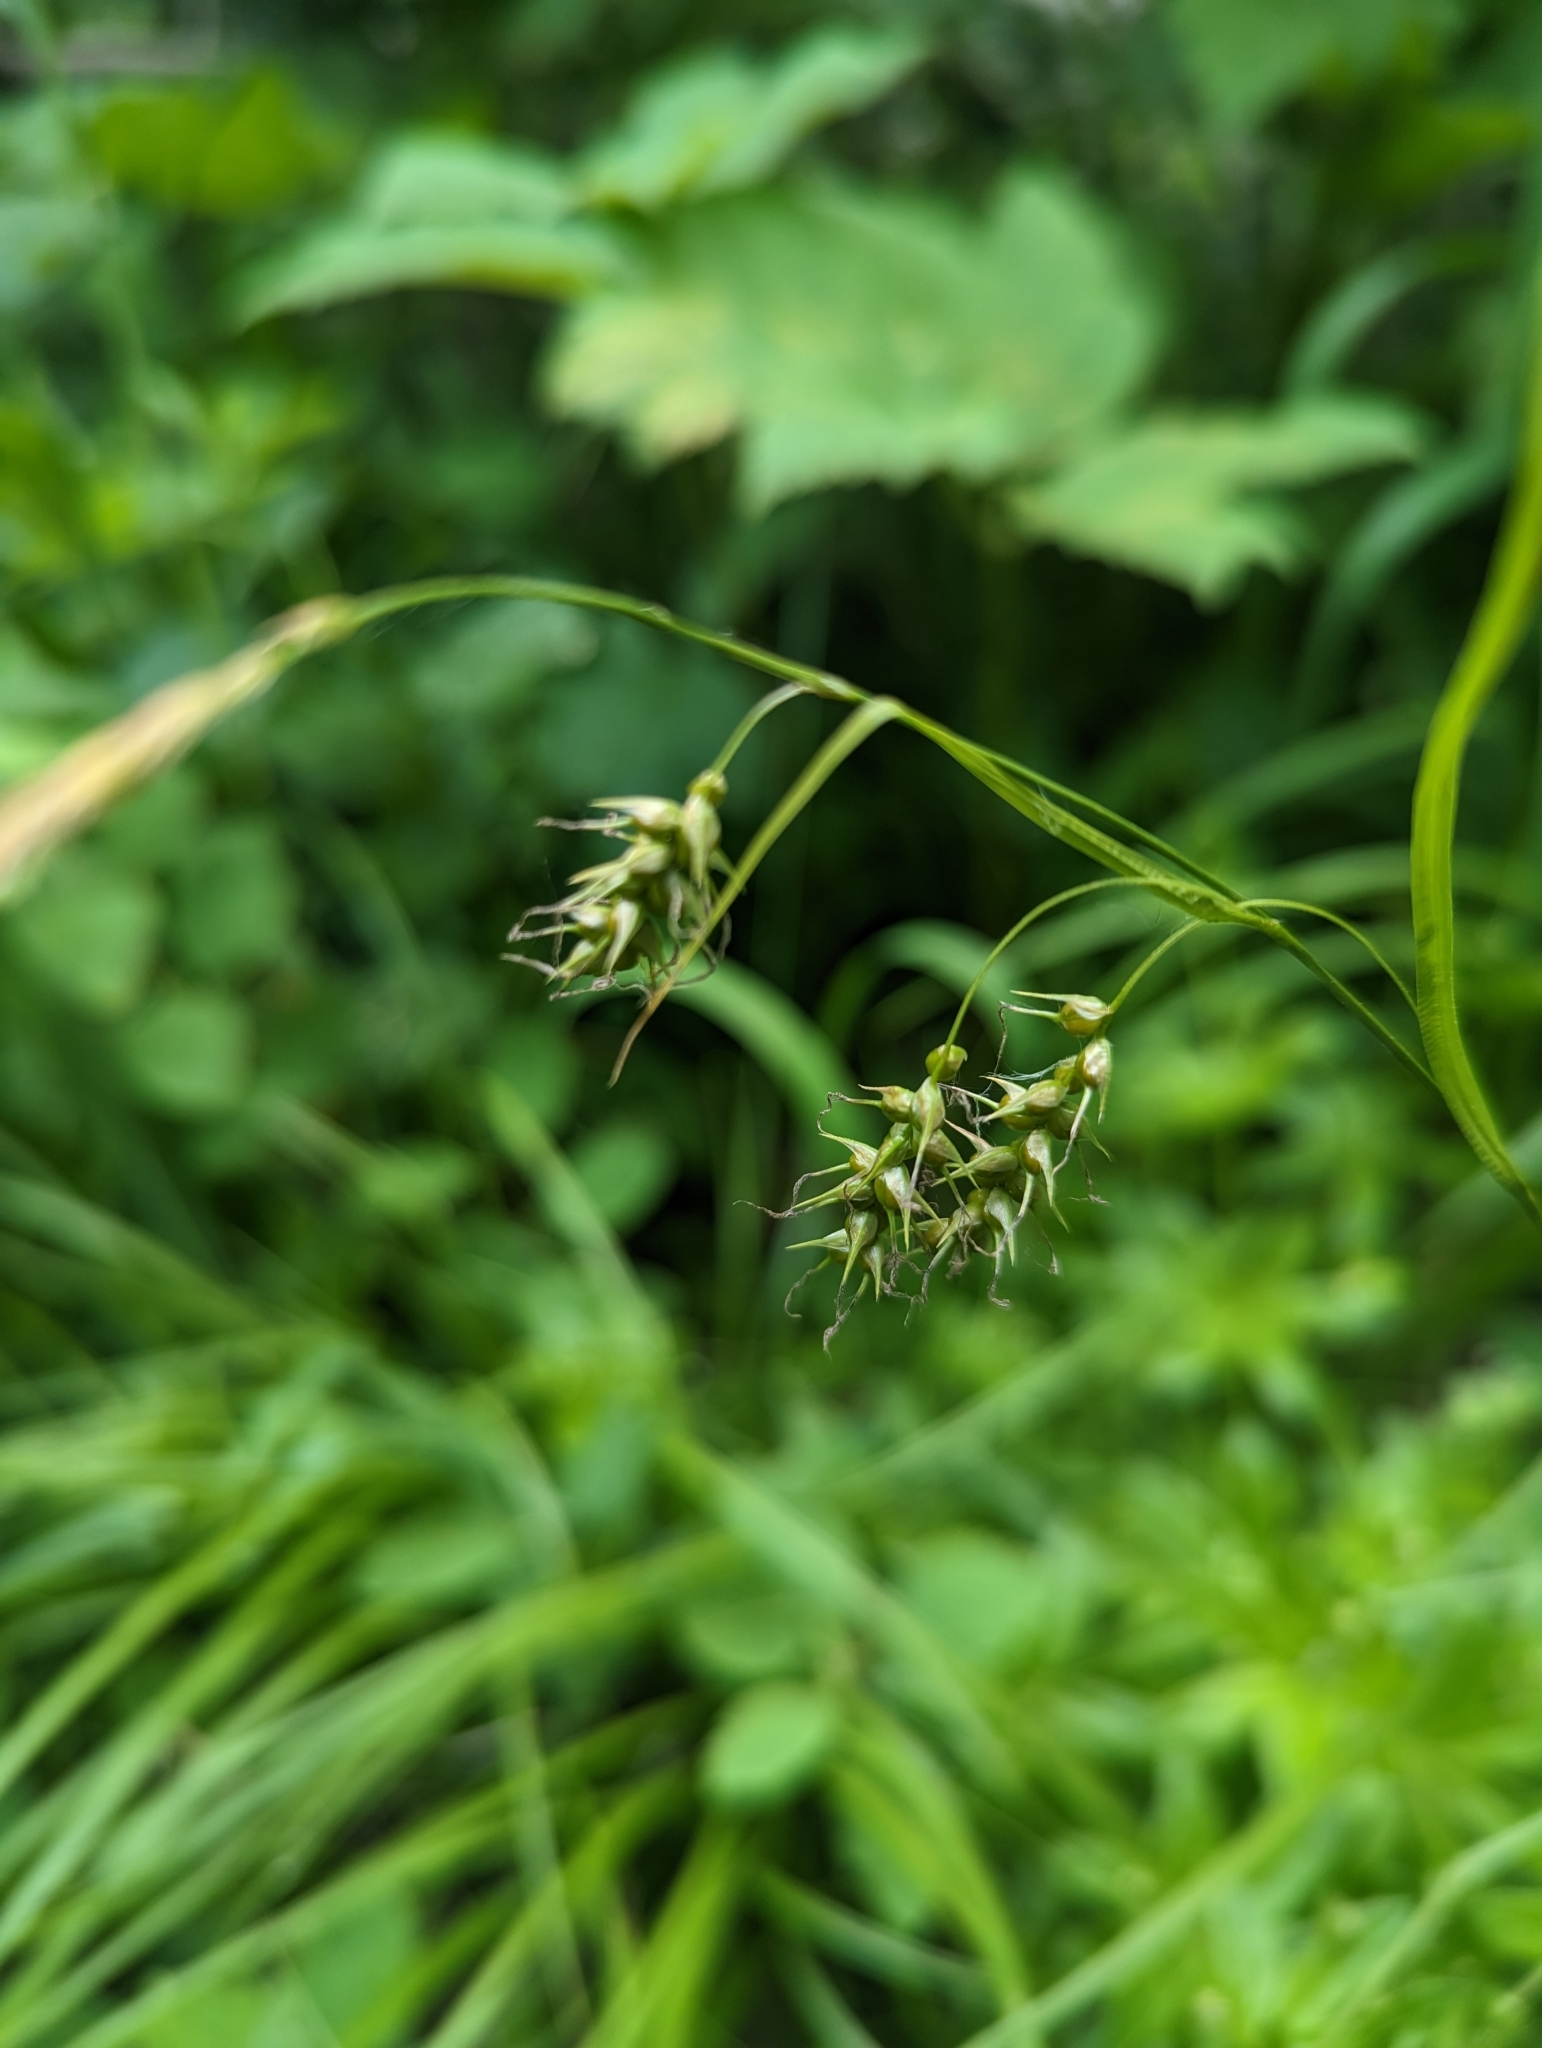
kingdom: Plantae
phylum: Tracheophyta
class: Liliopsida
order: Poales
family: Cyperaceae
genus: Carex
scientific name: Carex sprengelii
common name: Long-beaked sedge
